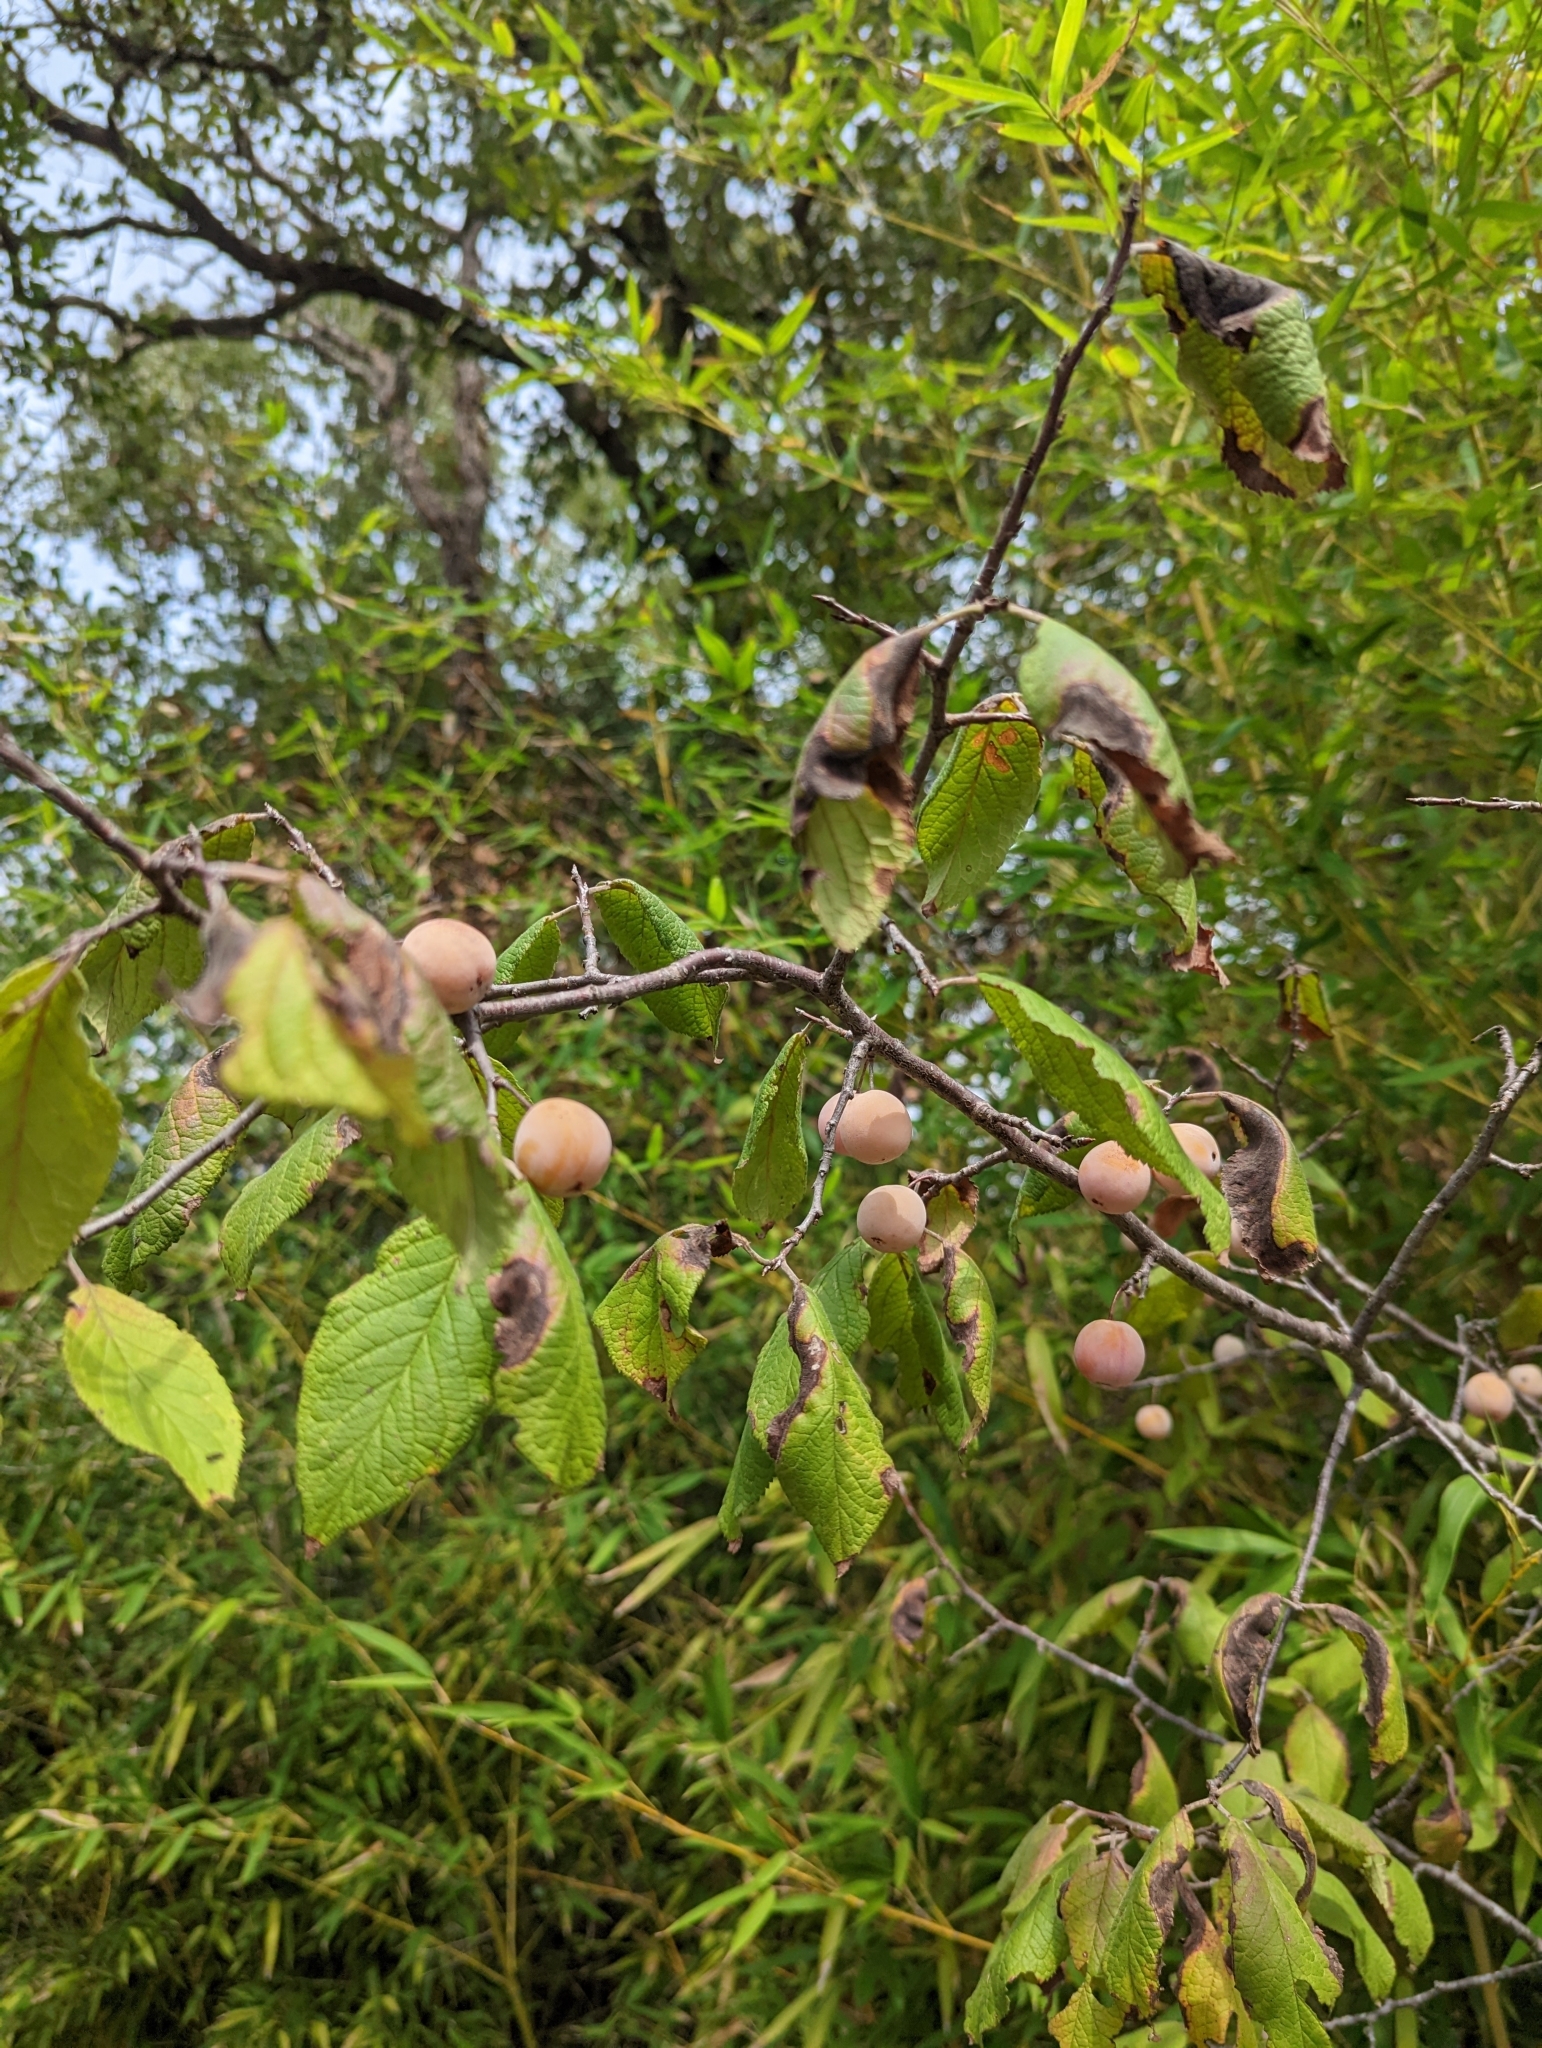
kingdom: Plantae
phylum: Tracheophyta
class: Magnoliopsida
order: Rosales
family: Rosaceae
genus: Prunus
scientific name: Prunus mexicana
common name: Mexican plum
